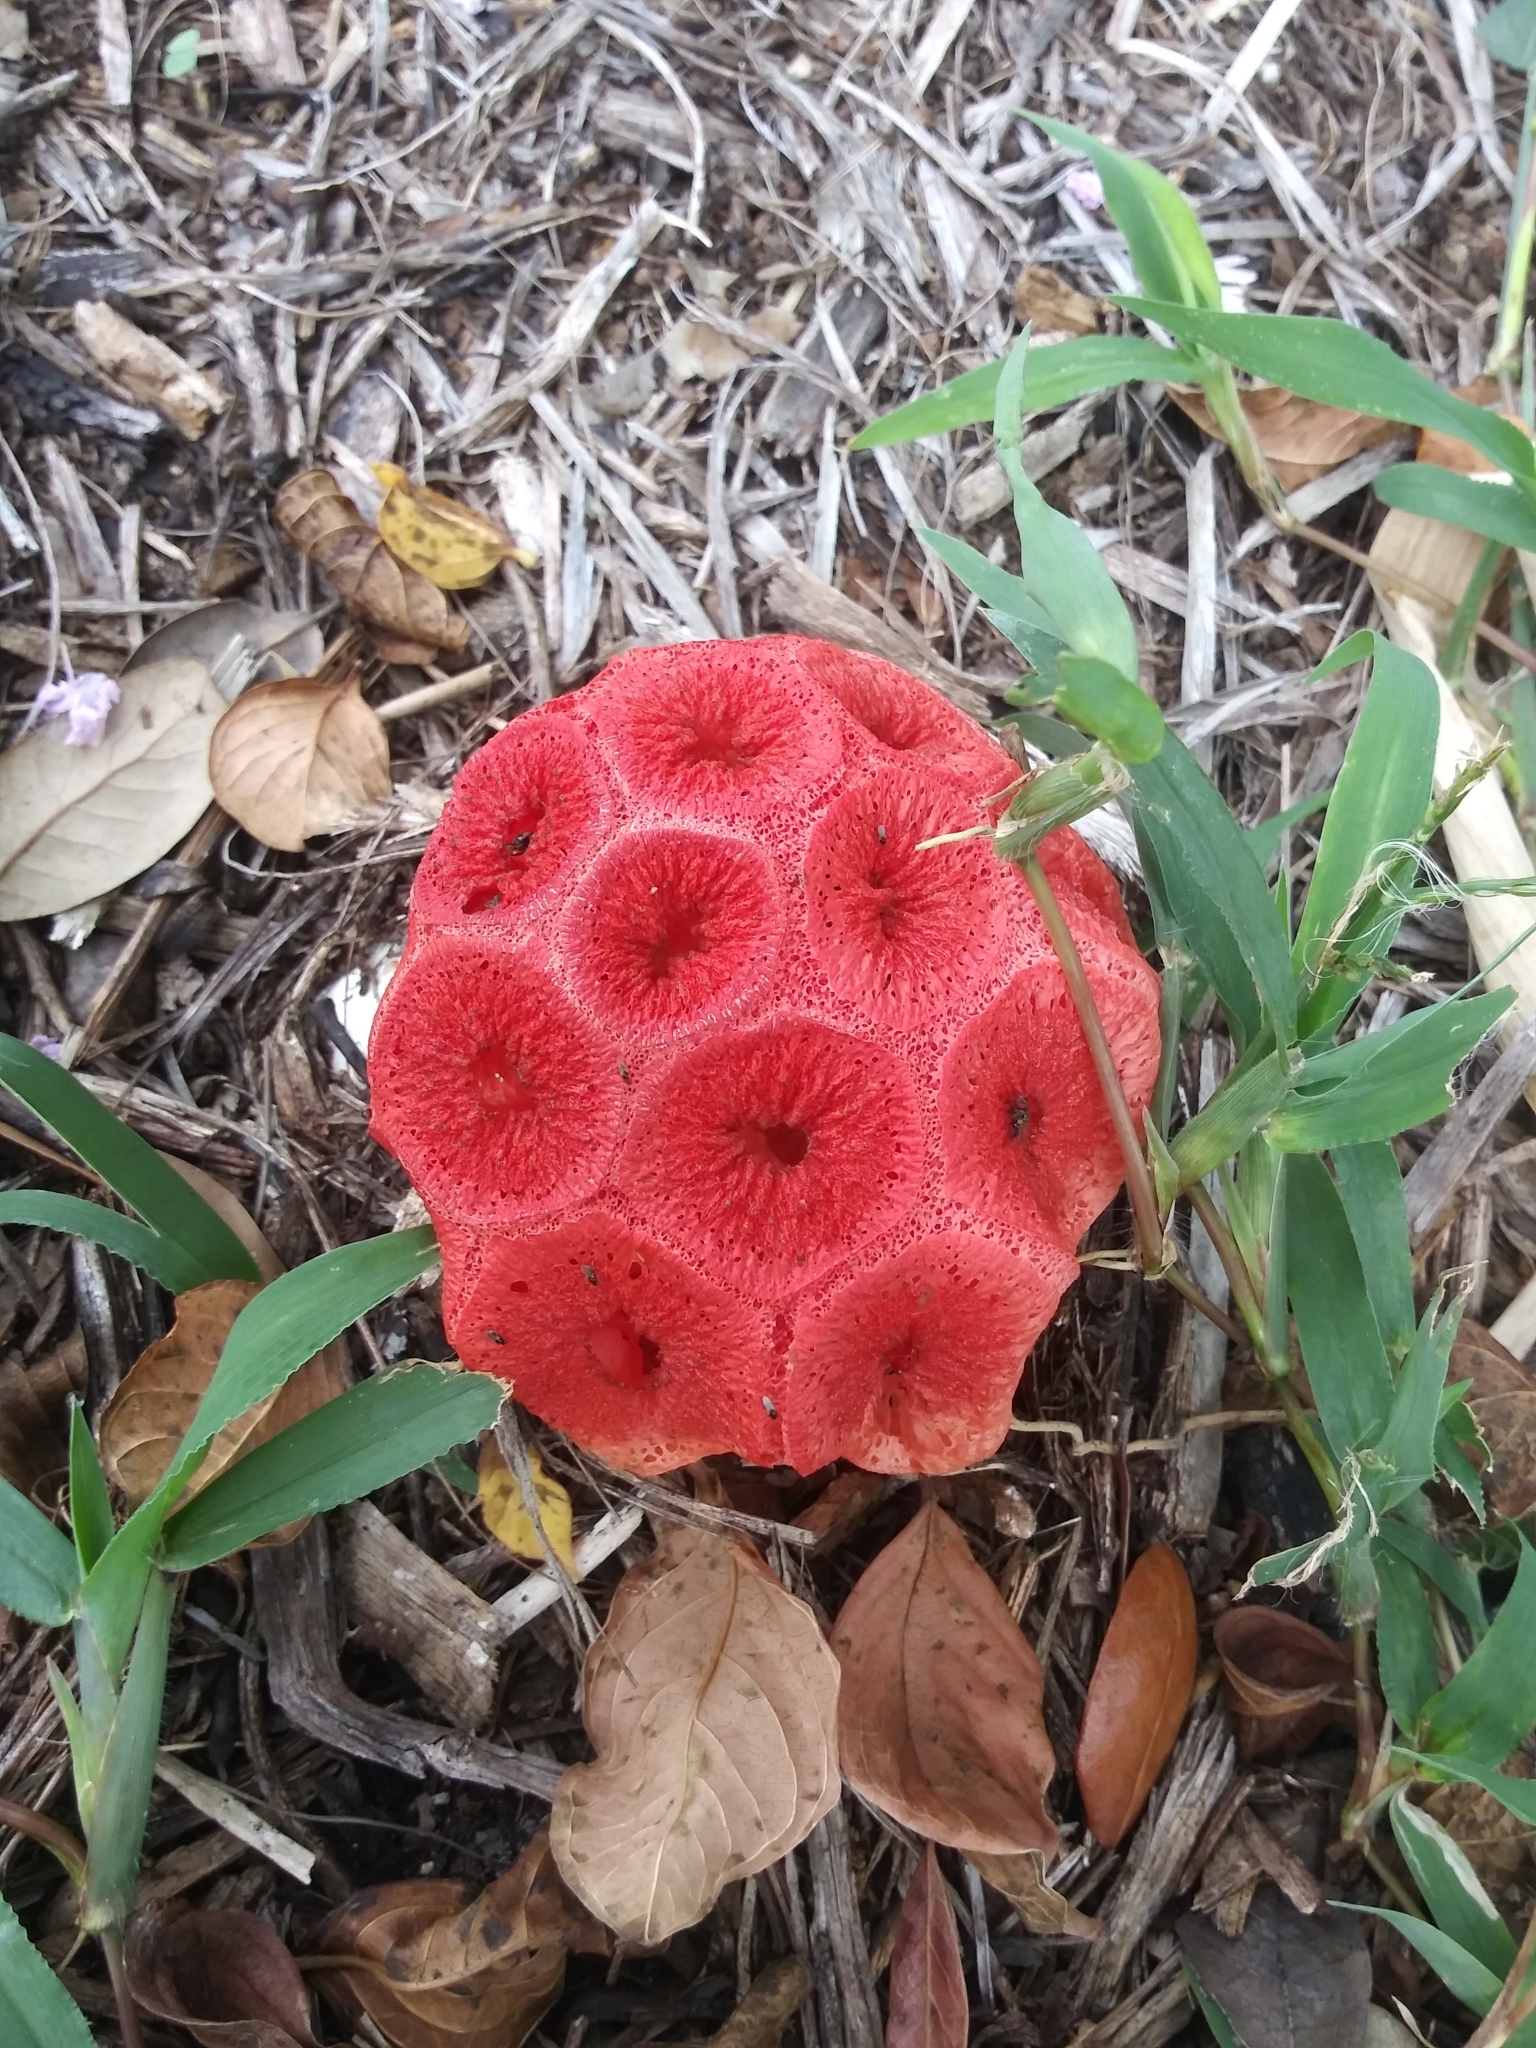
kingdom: Fungi
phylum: Basidiomycota
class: Agaricomycetes
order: Phallales
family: Phallaceae
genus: Clathrus
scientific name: Clathrus crispatus
